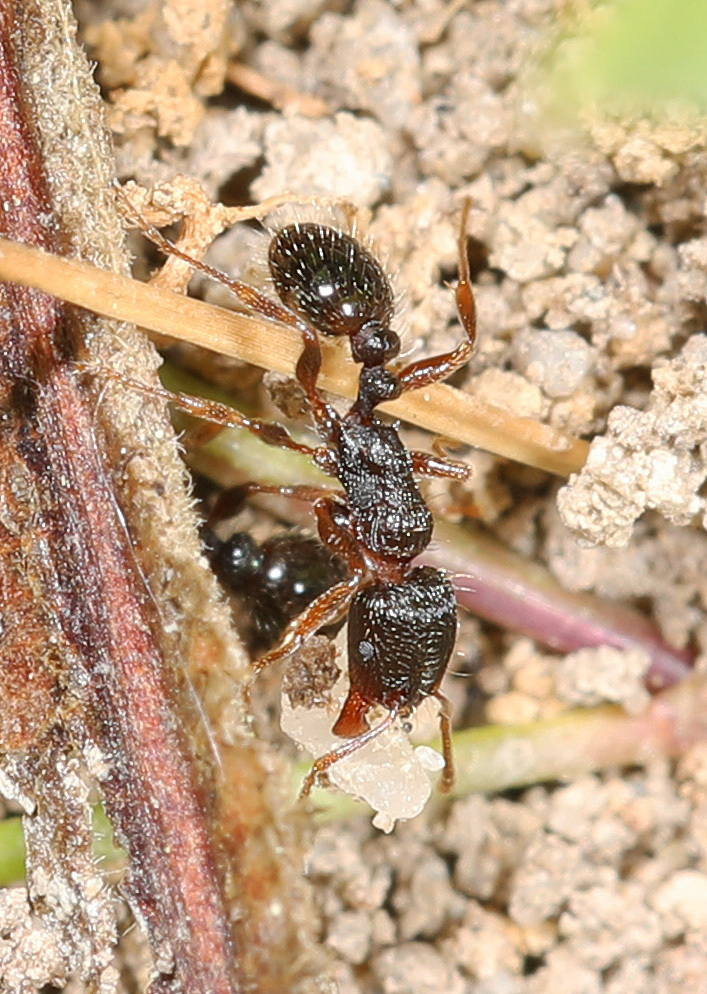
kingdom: Animalia
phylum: Arthropoda
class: Insecta
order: Hymenoptera
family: Formicidae
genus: Tetramorium
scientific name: Tetramorium immigrans
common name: Pavement ant
